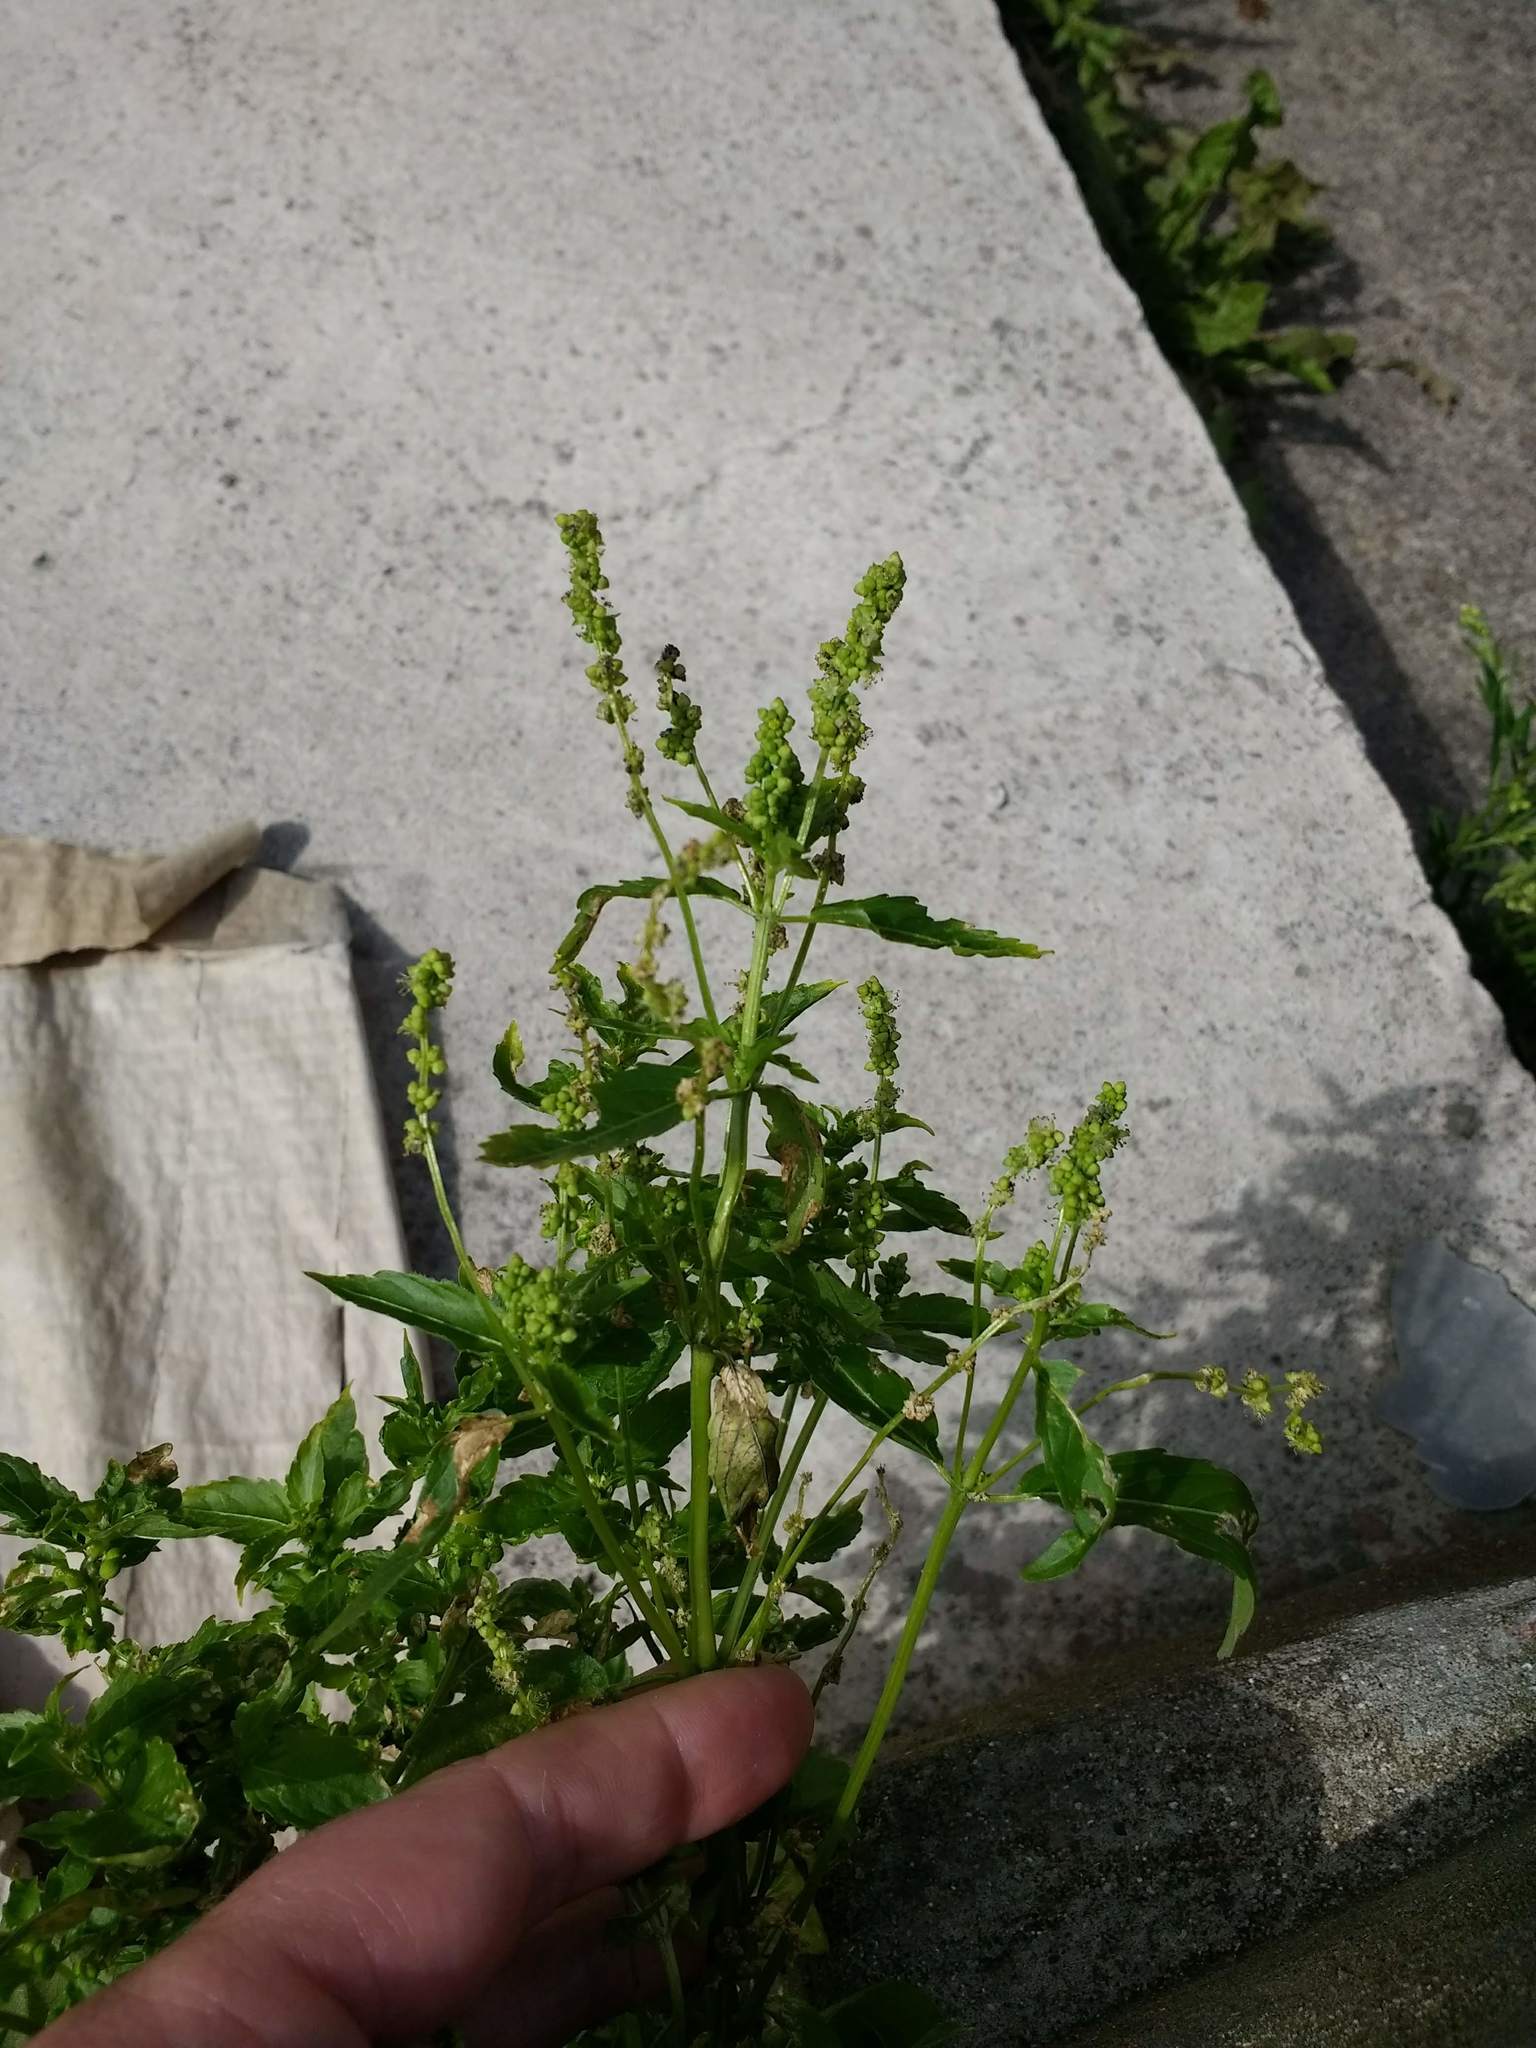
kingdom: Plantae
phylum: Tracheophyta
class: Magnoliopsida
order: Malpighiales
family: Euphorbiaceae
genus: Mercurialis
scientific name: Mercurialis annua
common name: Annual mercury
